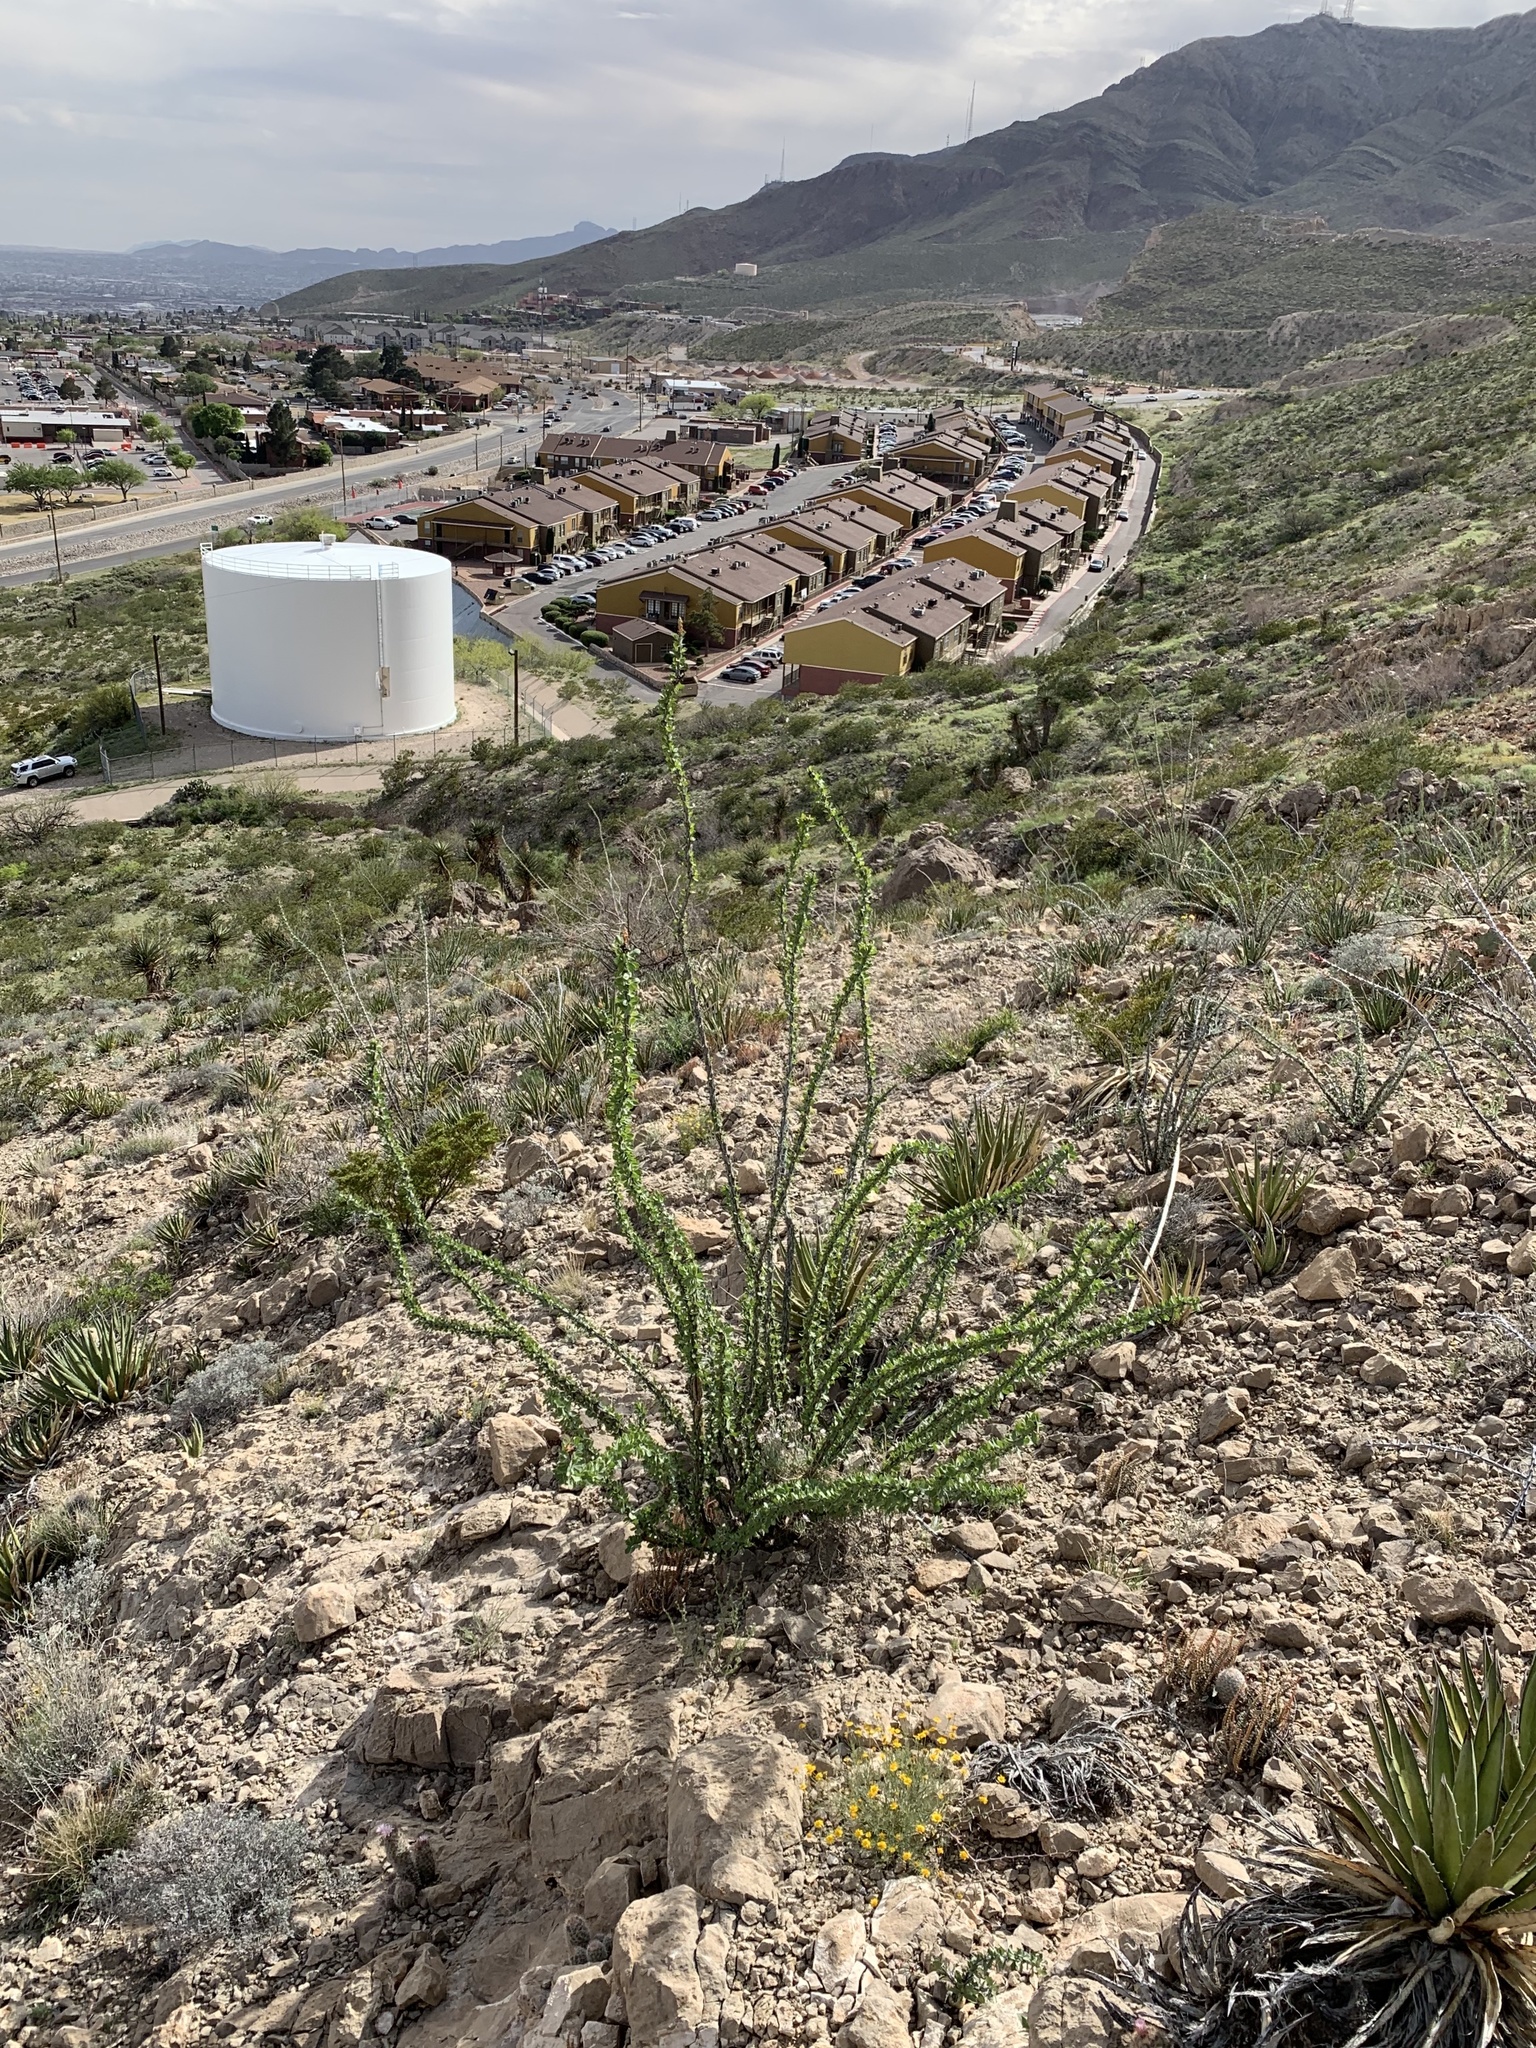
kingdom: Plantae
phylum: Tracheophyta
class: Magnoliopsida
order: Ericales
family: Fouquieriaceae
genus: Fouquieria
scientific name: Fouquieria splendens
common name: Vine-cactus
